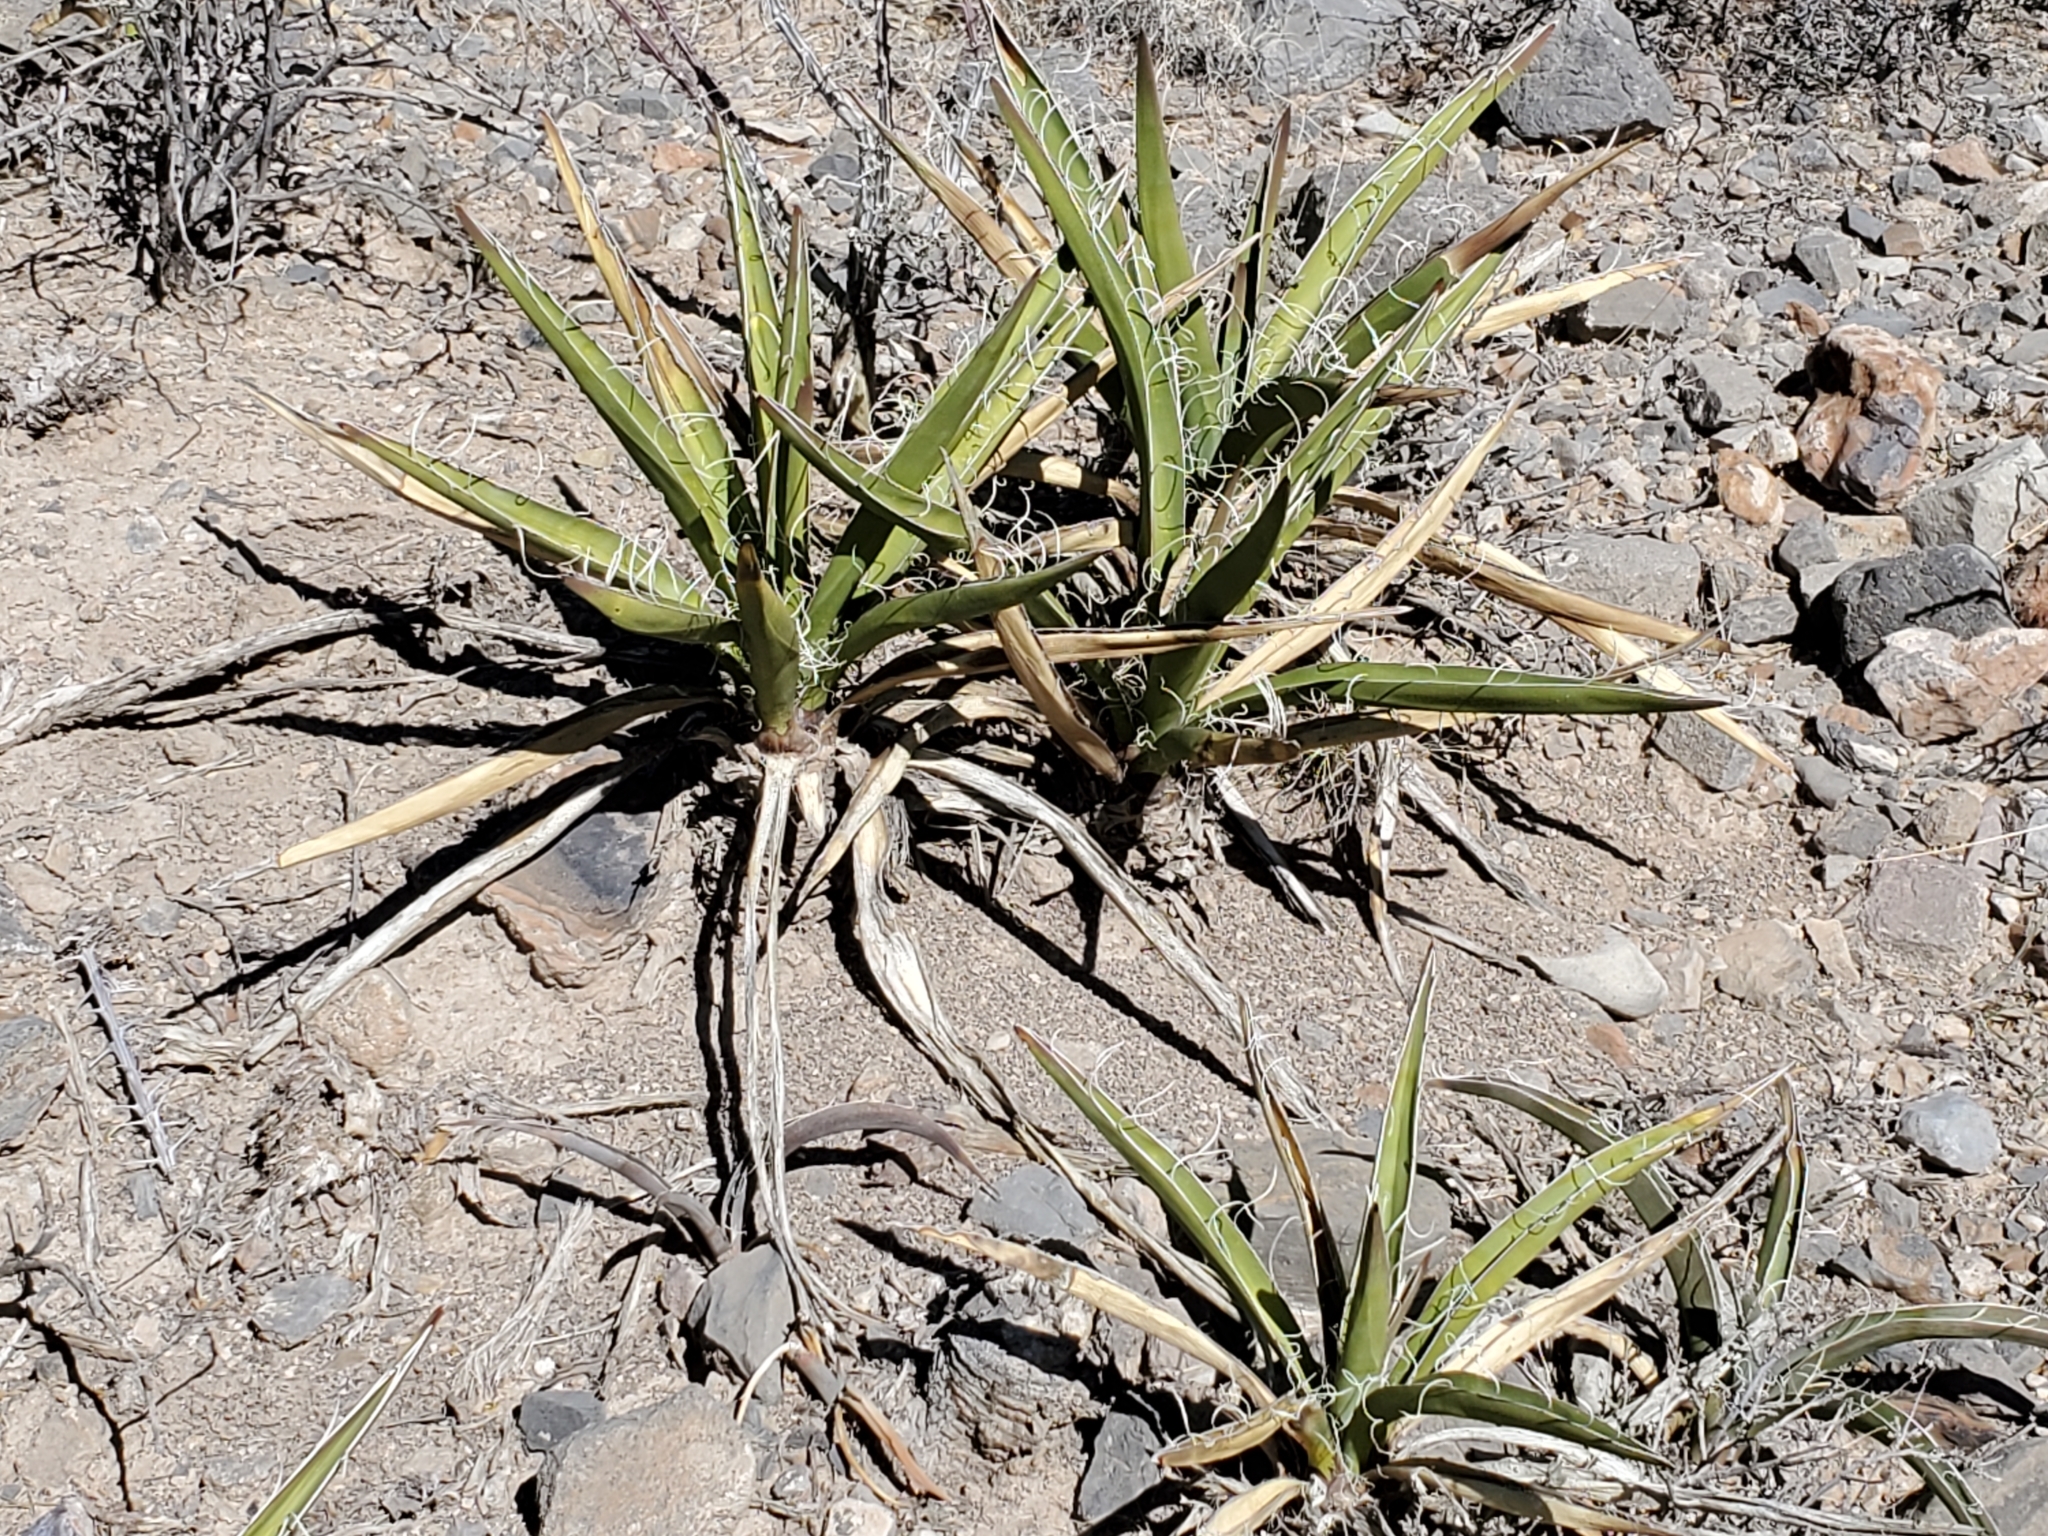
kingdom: Plantae
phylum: Tracheophyta
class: Liliopsida
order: Asparagales
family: Asparagaceae
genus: Yucca
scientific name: Yucca baccata
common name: Banana yucca
